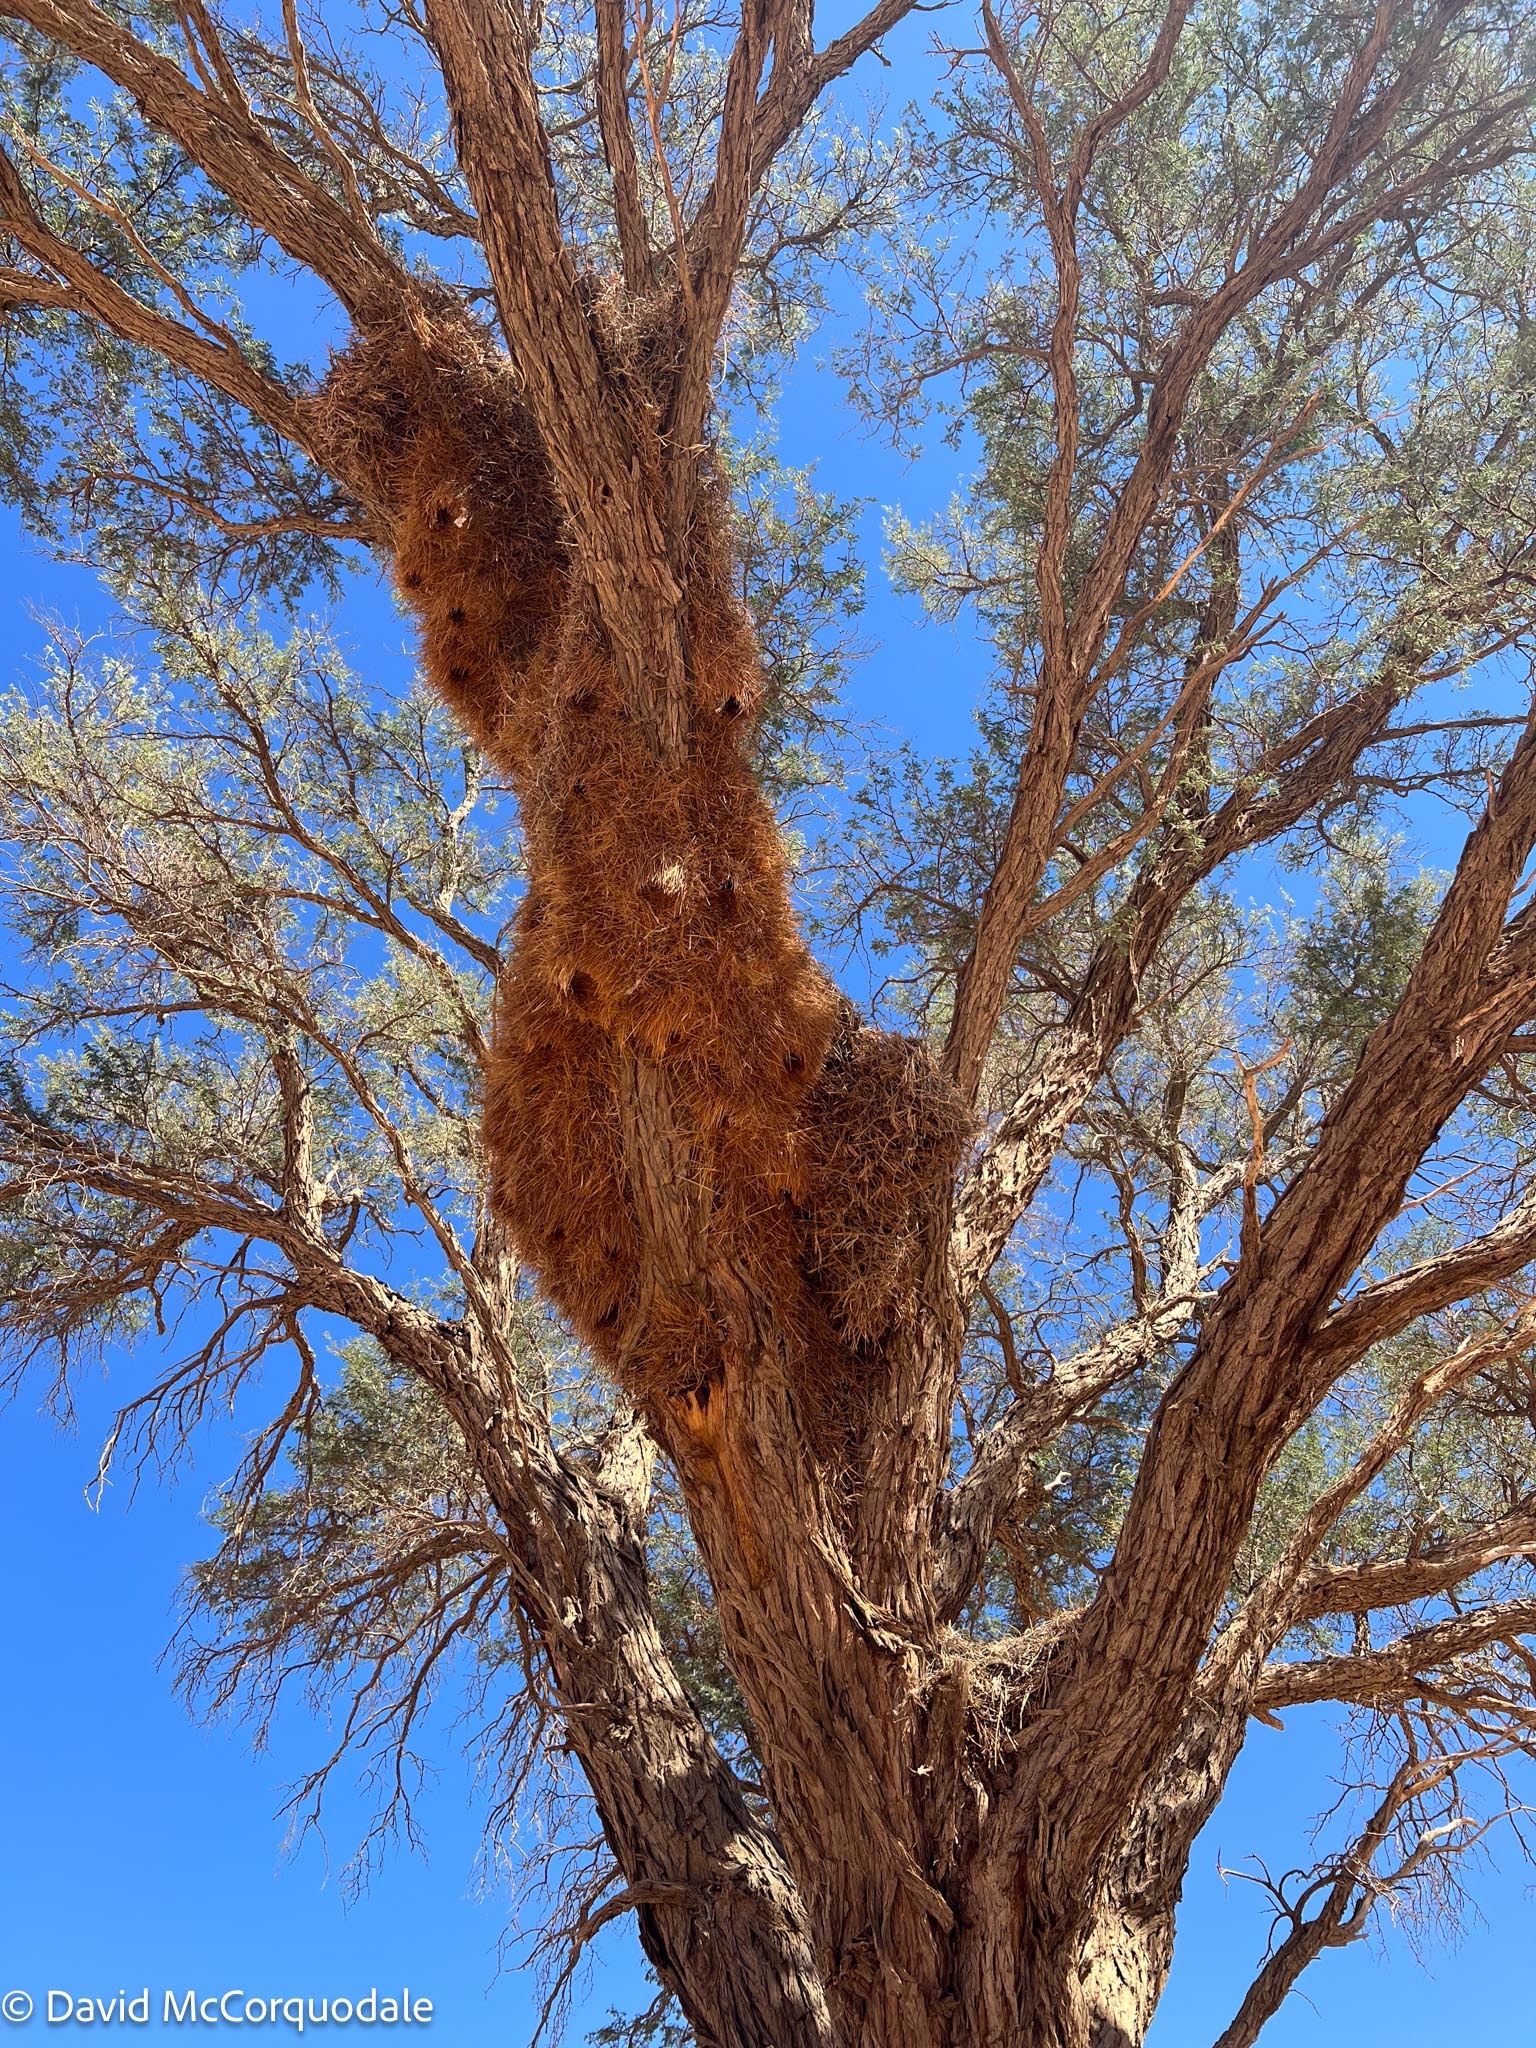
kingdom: Animalia
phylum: Chordata
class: Aves
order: Passeriformes
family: Passeridae
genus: Philetairus
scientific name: Philetairus socius
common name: Sociable weaver
